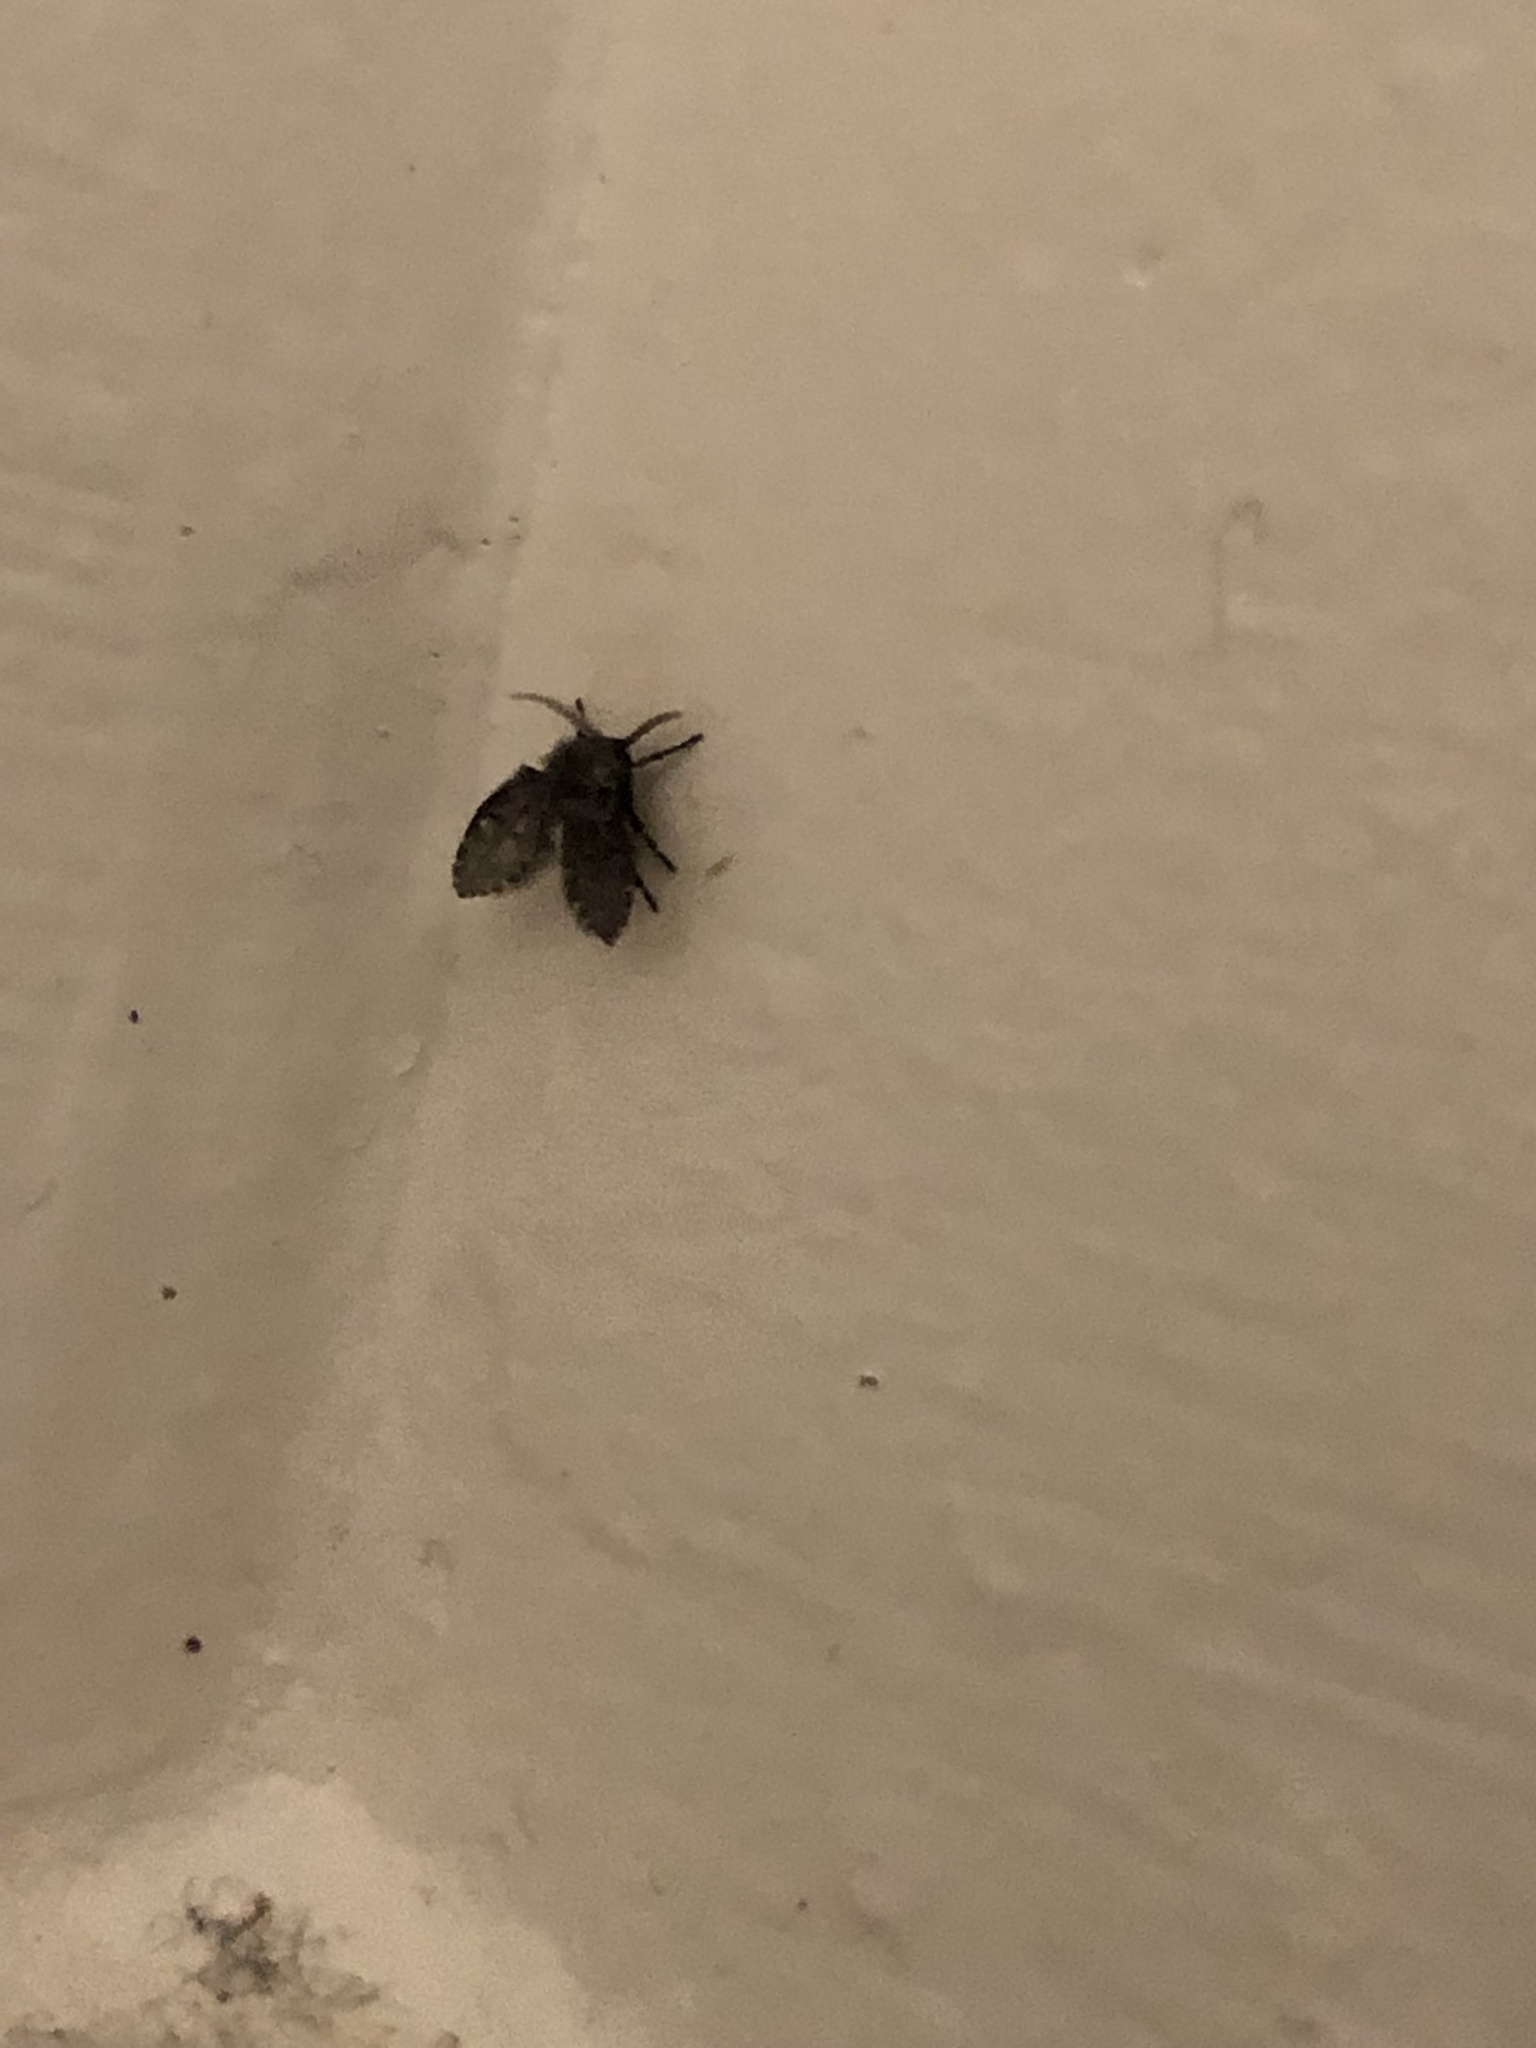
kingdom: Animalia
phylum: Arthropoda
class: Insecta
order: Diptera
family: Psychodidae
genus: Clogmia
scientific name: Clogmia albipunctatus
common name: White-spotted moth fly
